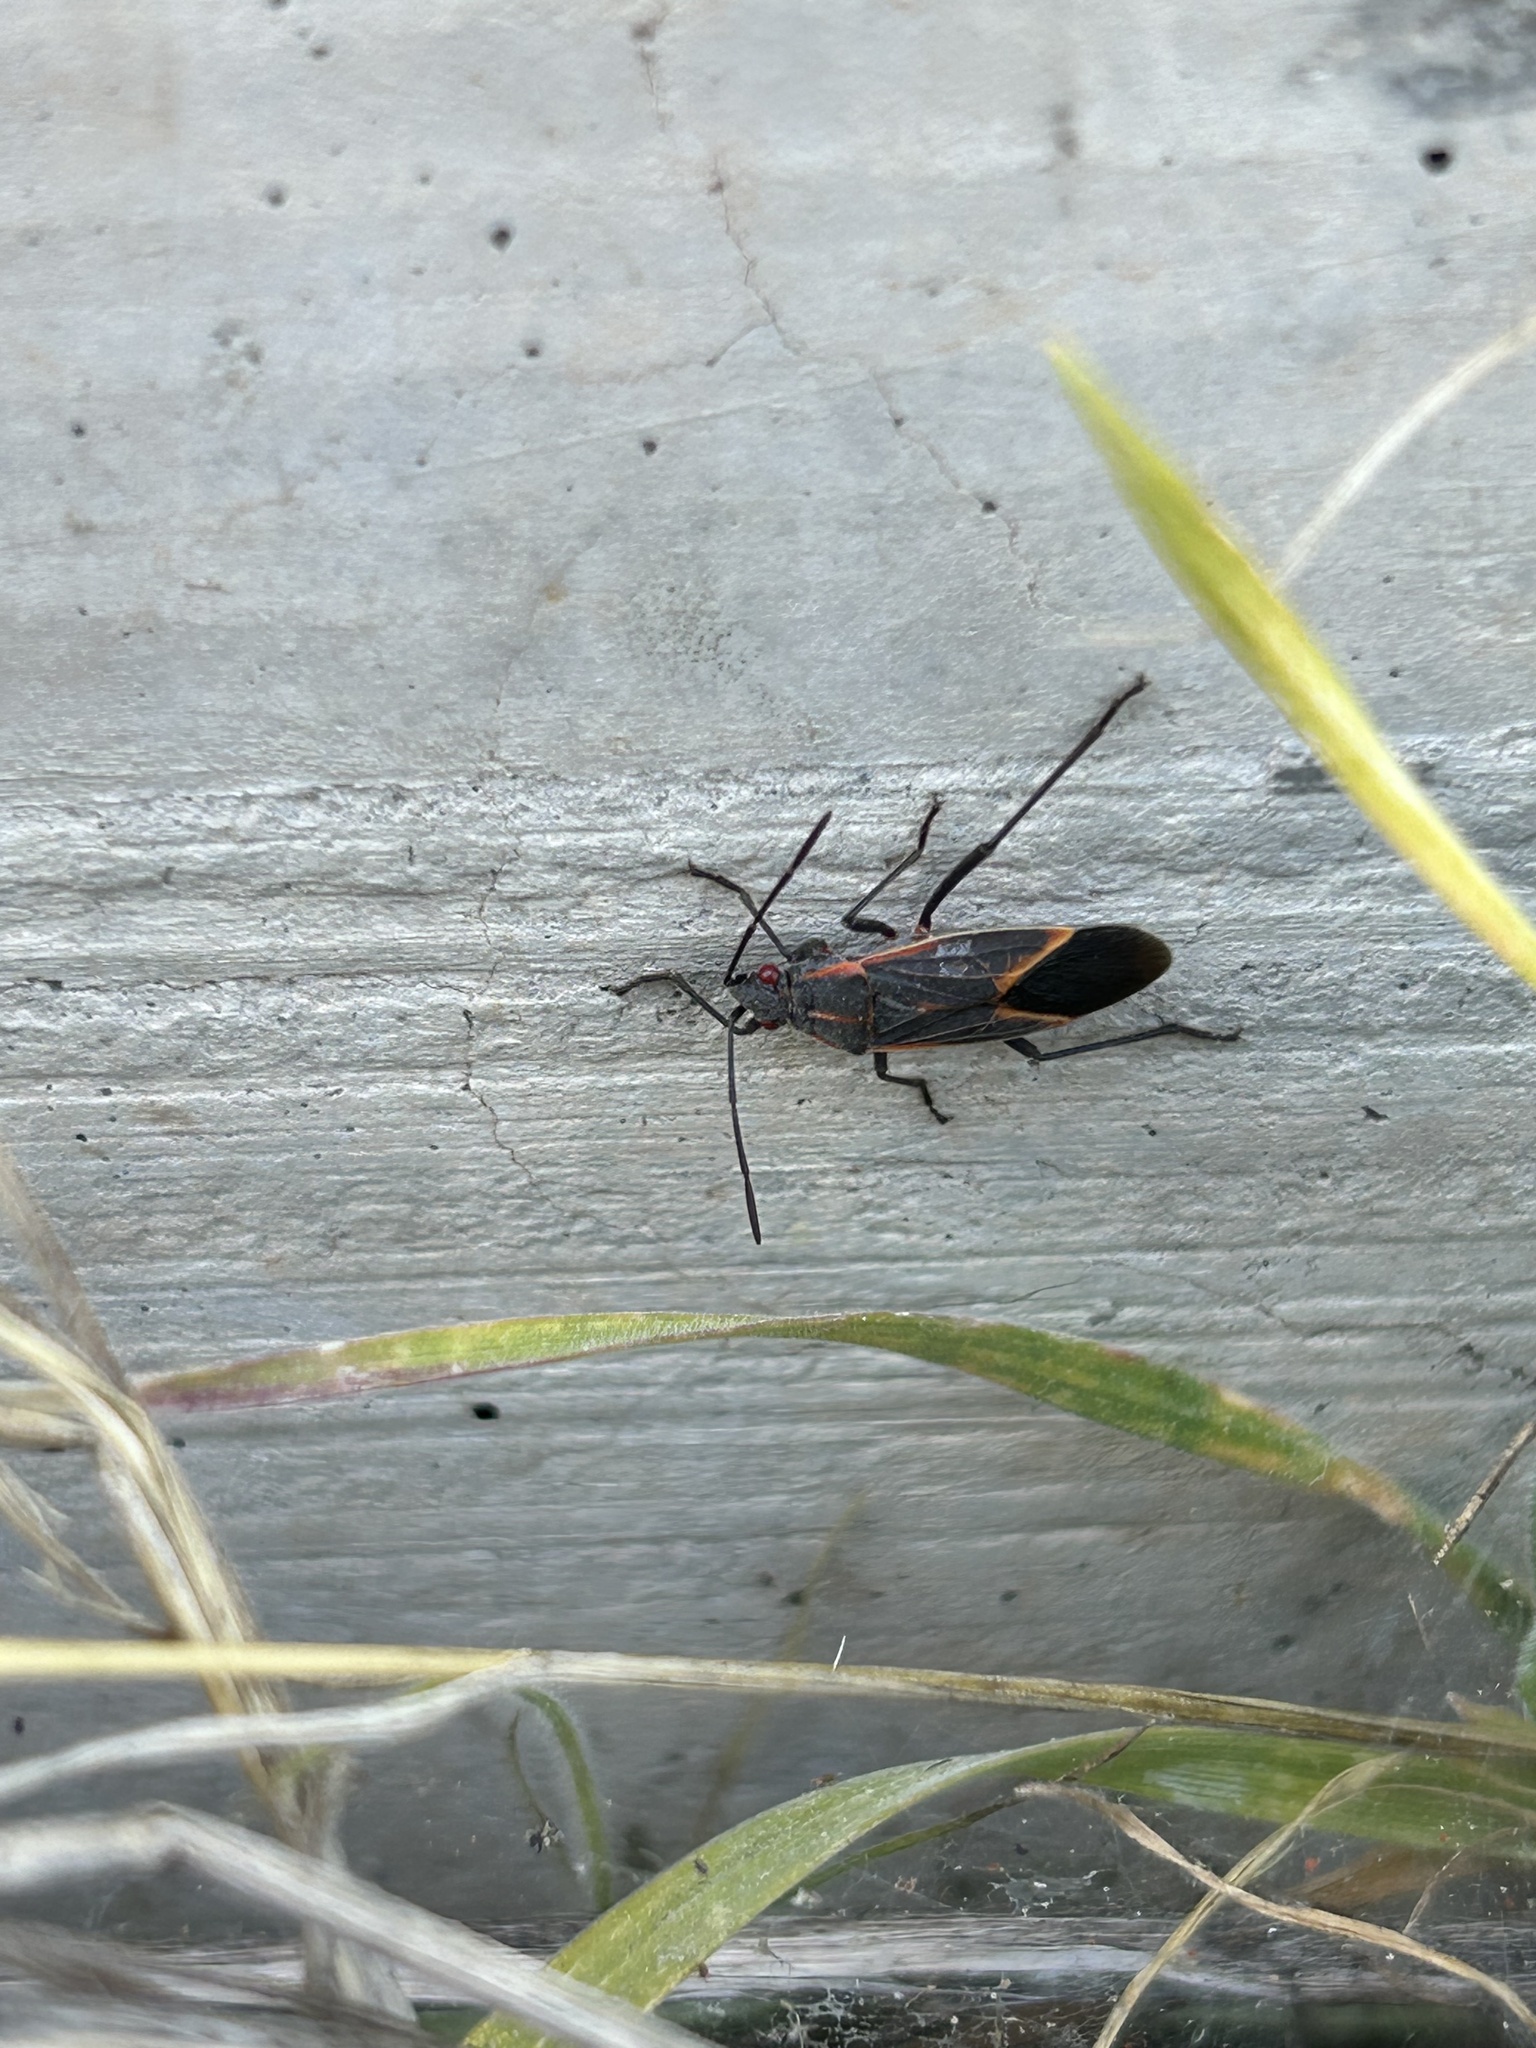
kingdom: Animalia
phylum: Arthropoda
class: Insecta
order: Hemiptera
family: Rhopalidae
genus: Boisea
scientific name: Boisea trivittata
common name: Boxelder bug
